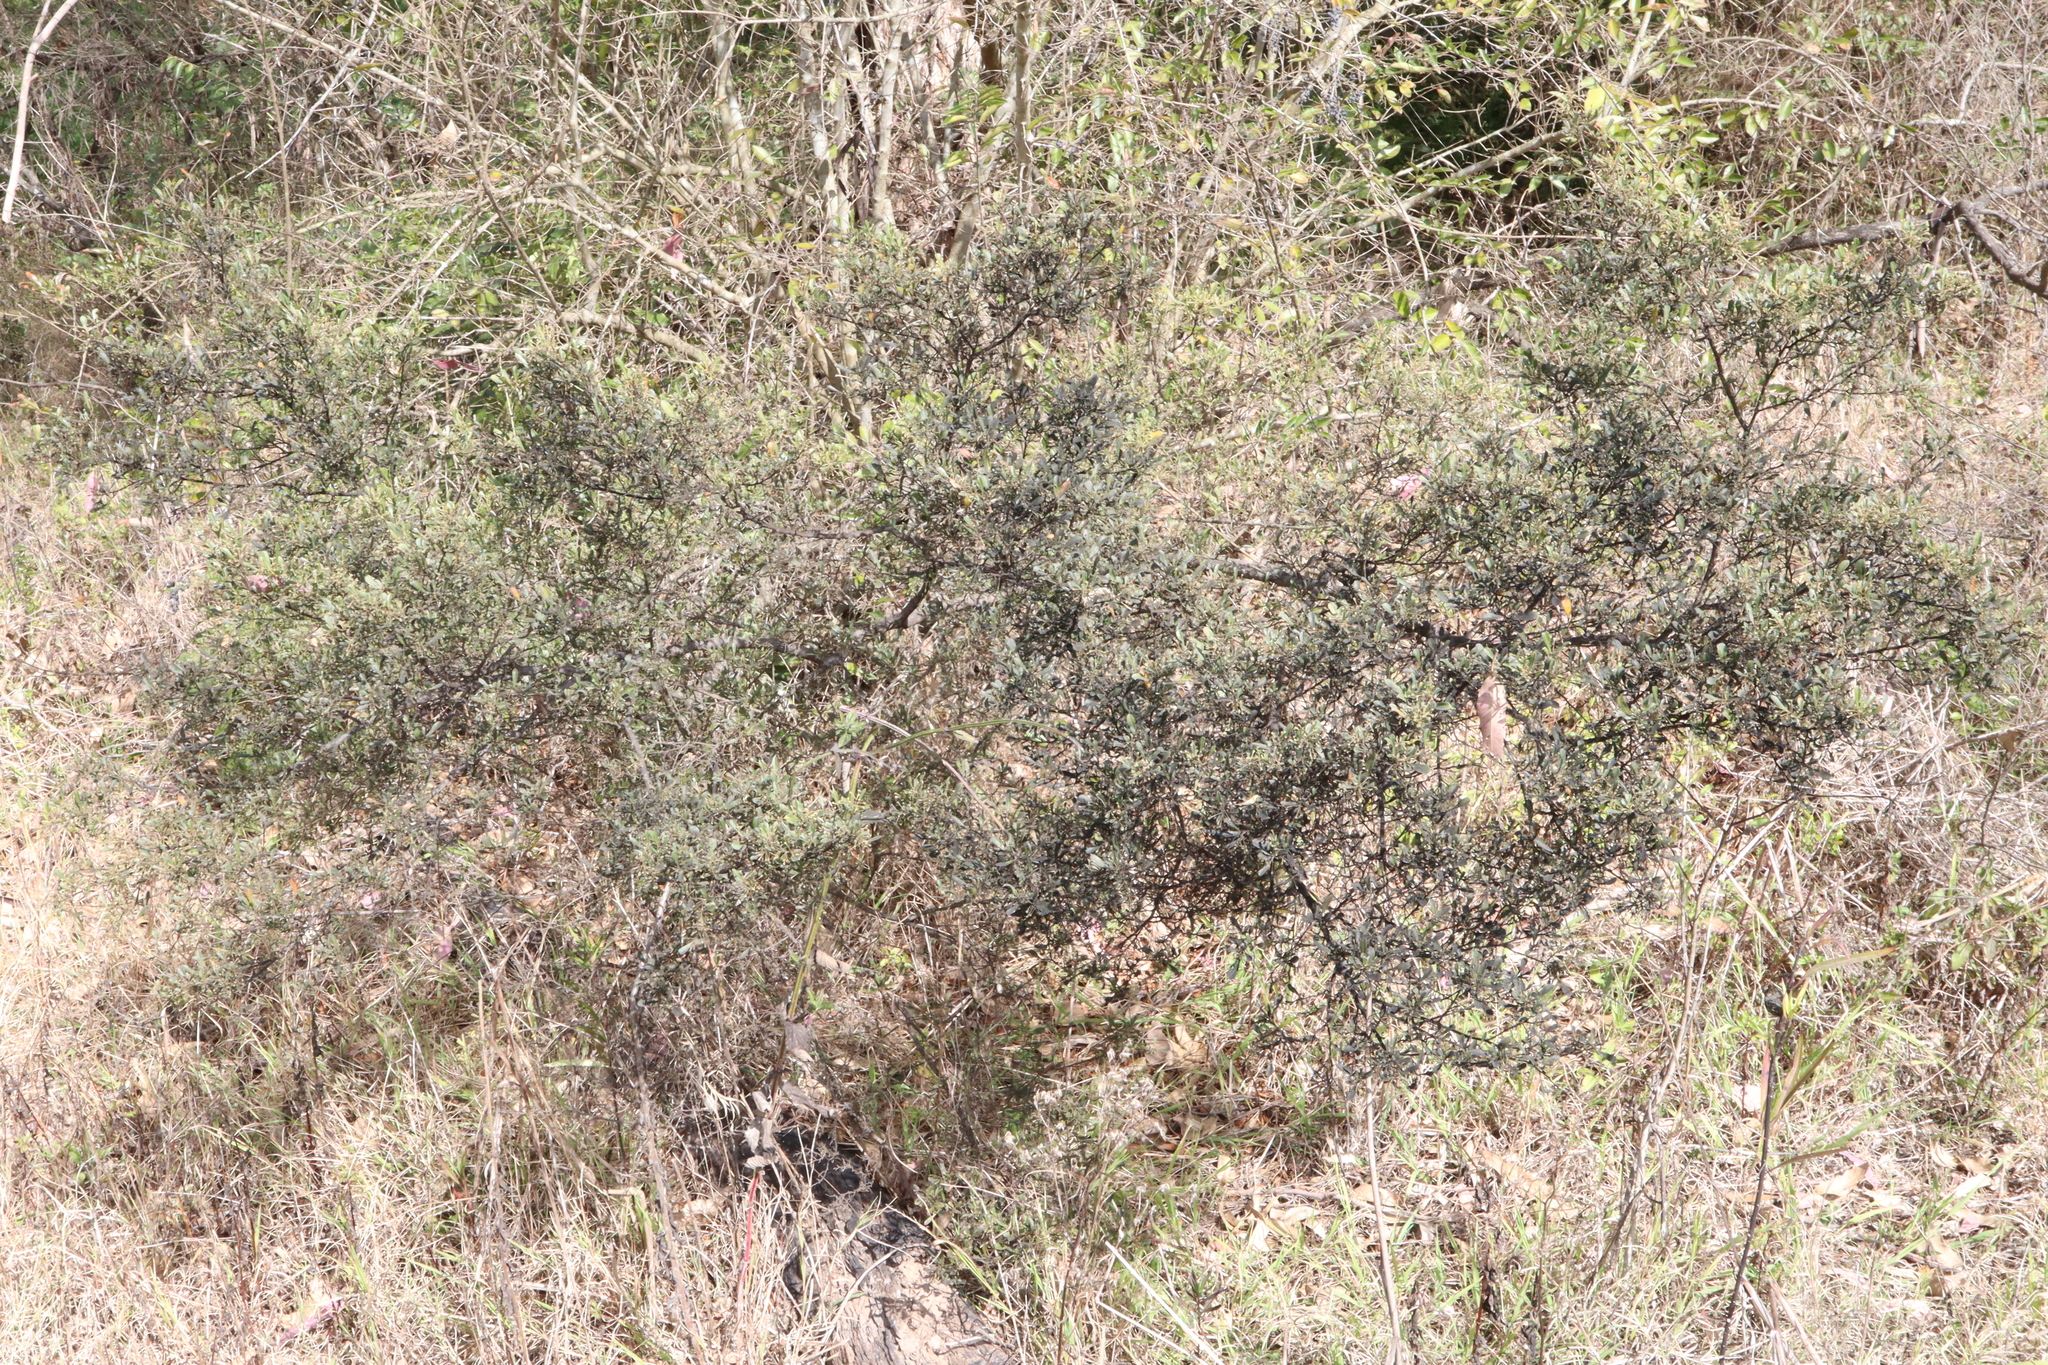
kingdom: Plantae
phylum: Tracheophyta
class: Magnoliopsida
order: Sapindales
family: Sapindaceae
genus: Dodonaea
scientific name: Dodonaea viscosa
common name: Hopbush
